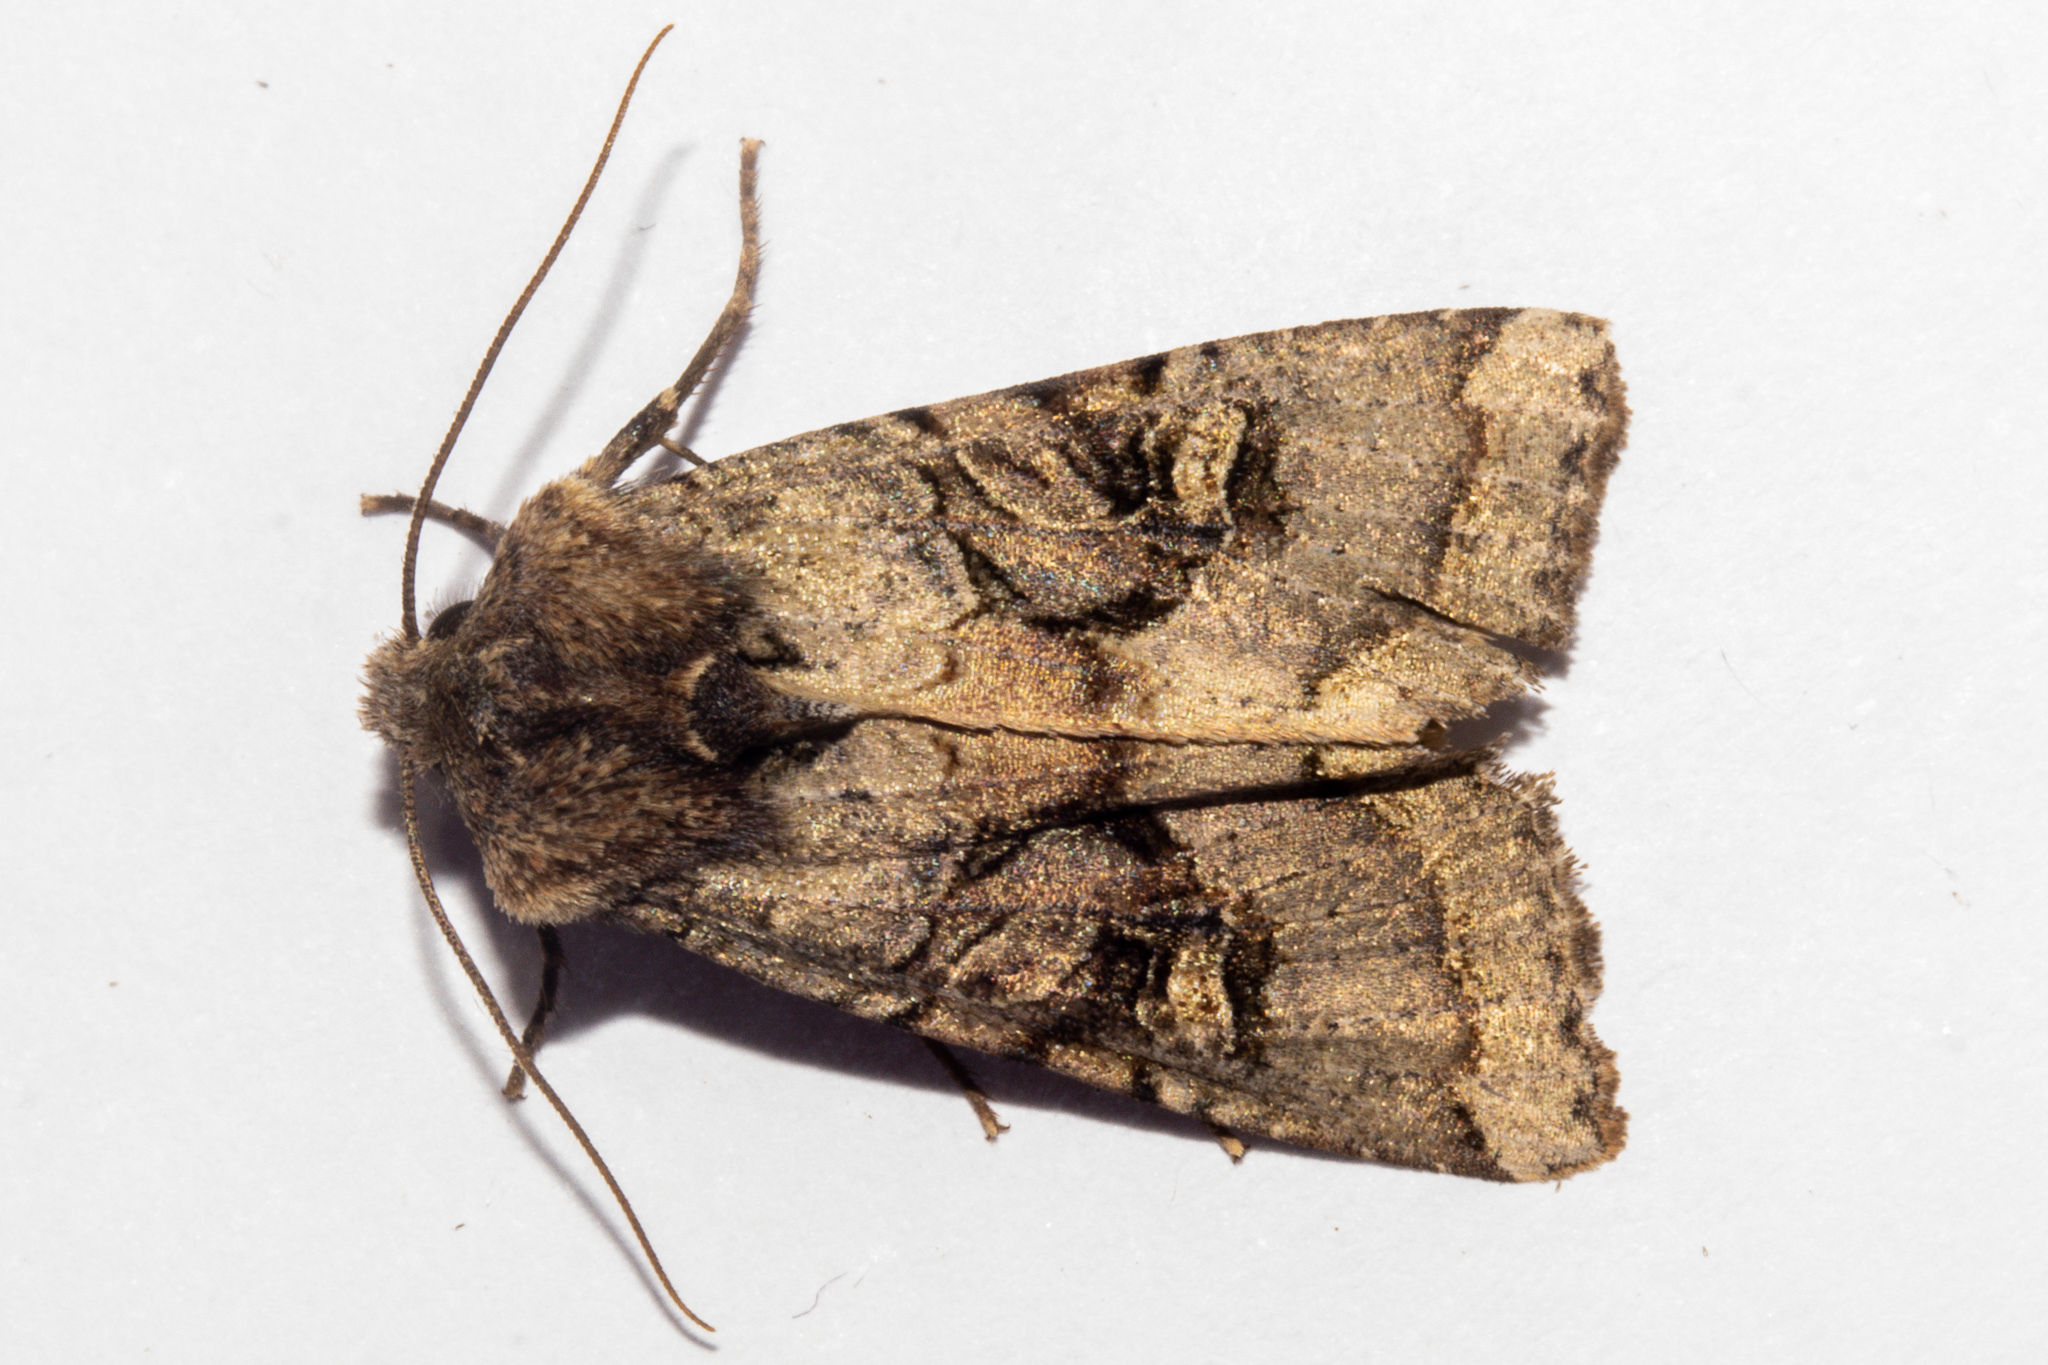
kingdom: Animalia
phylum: Arthropoda
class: Insecta
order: Lepidoptera
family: Noctuidae
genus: Meterana
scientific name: Meterana tartaraea
